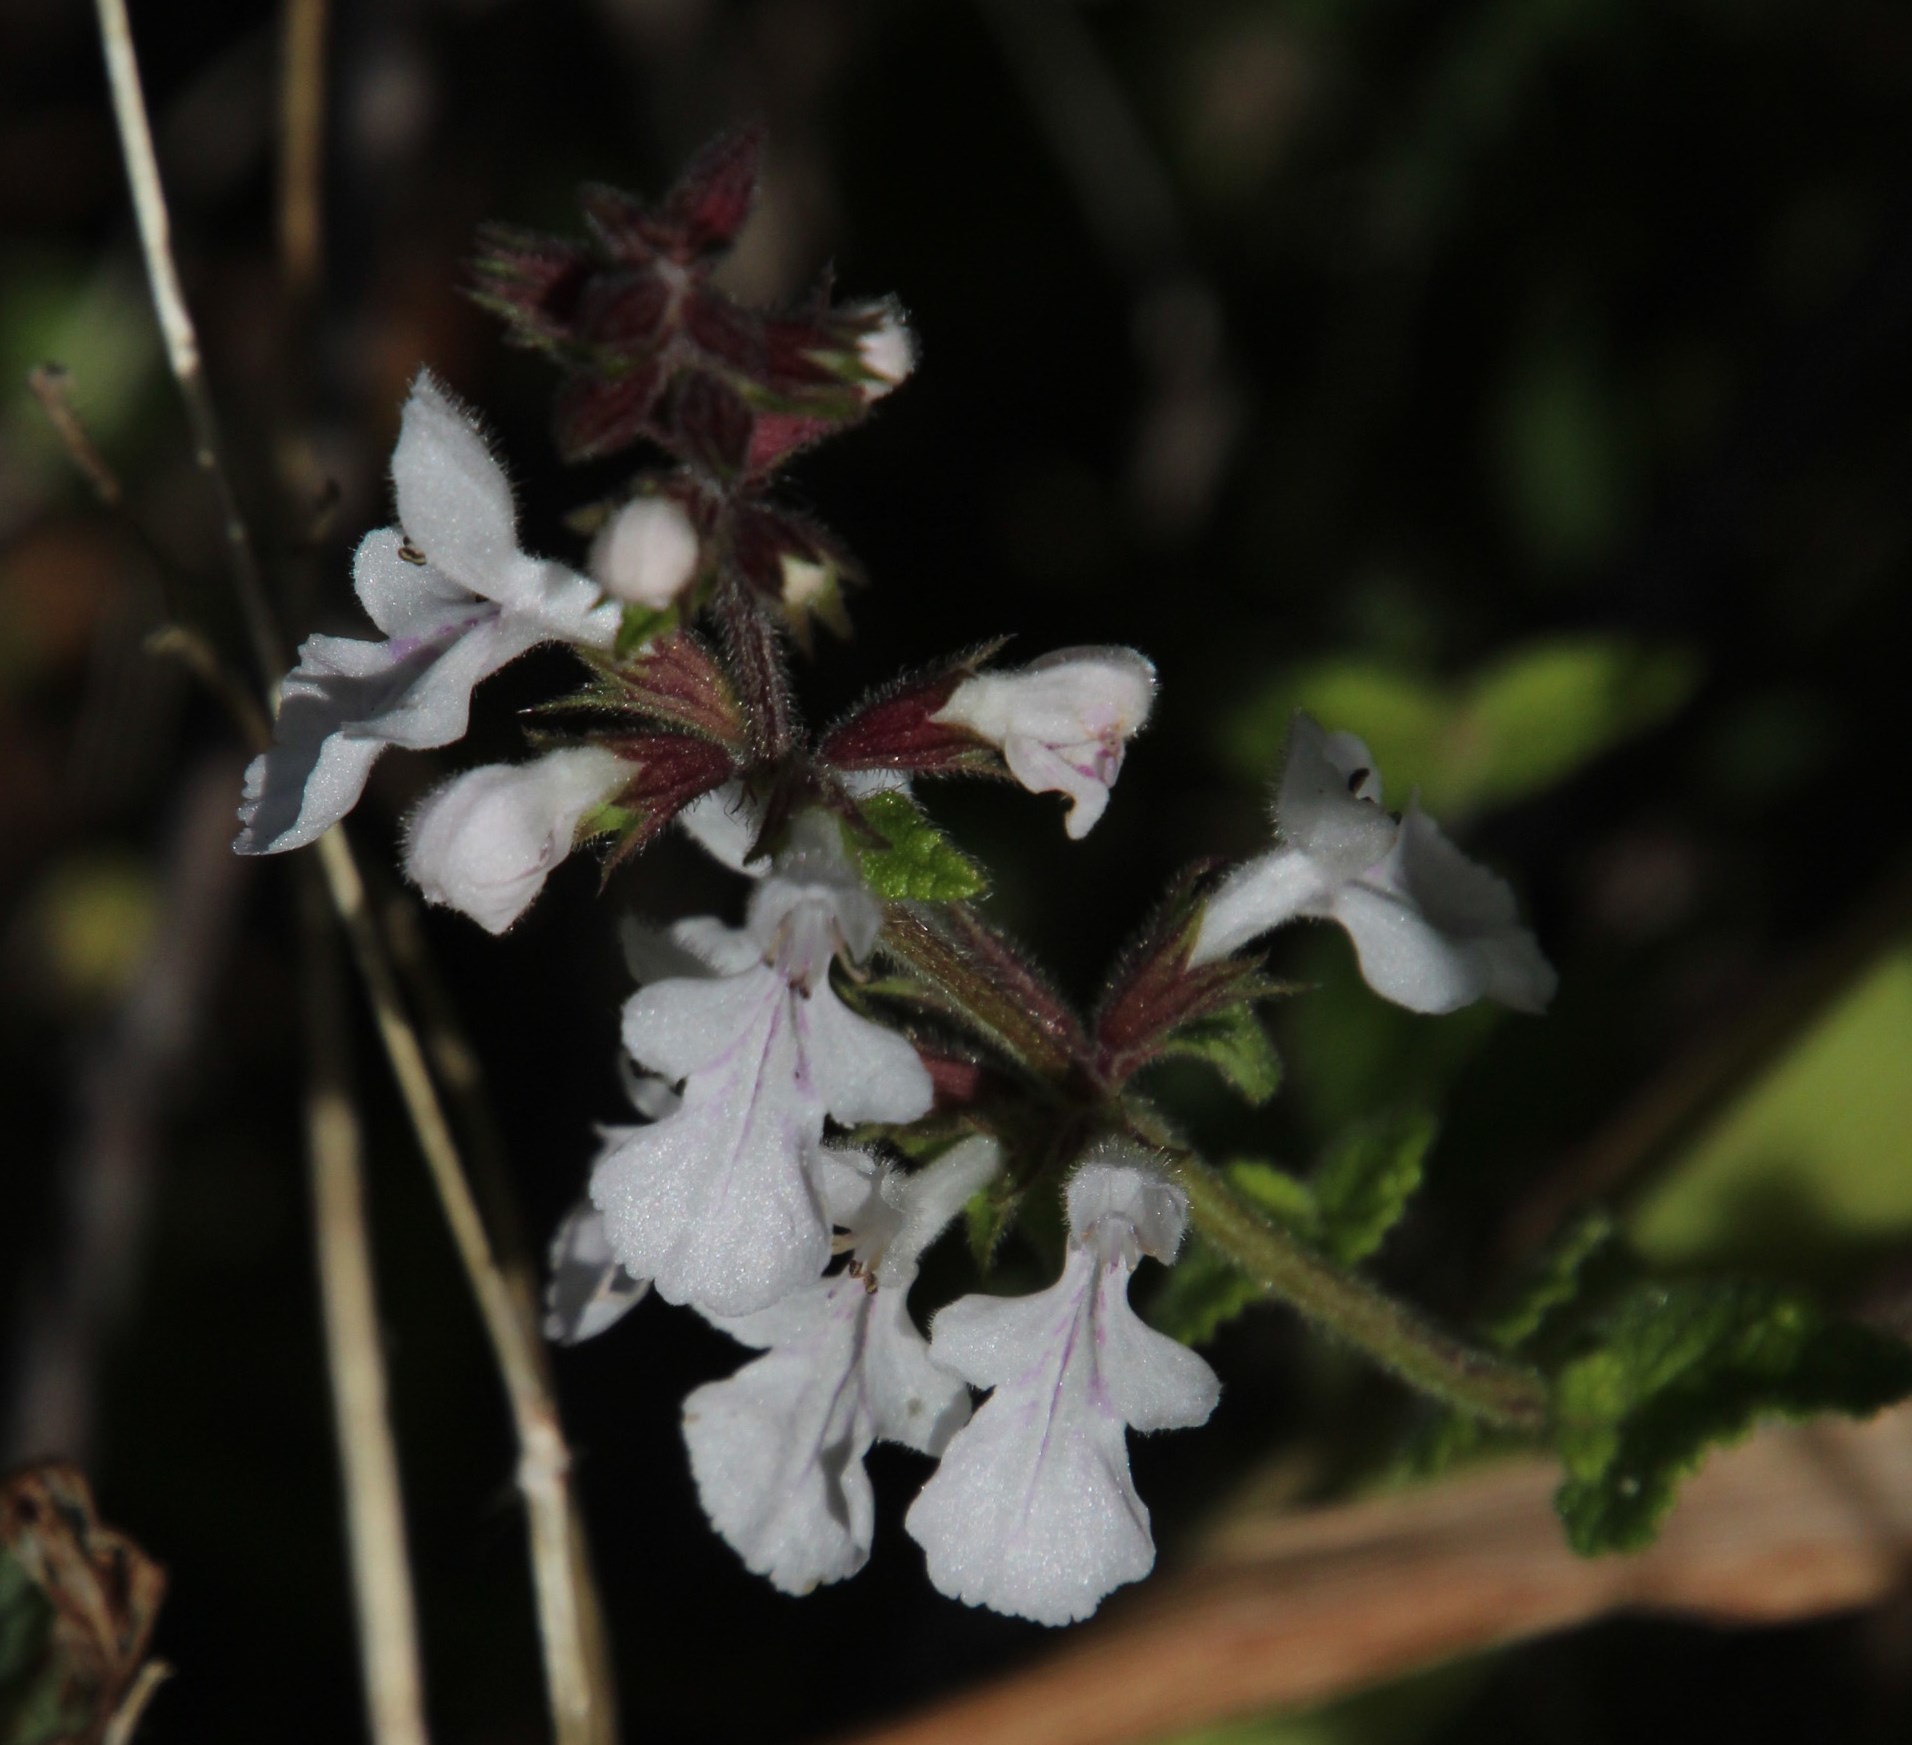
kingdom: Plantae
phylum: Tracheophyta
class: Magnoliopsida
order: Lamiales
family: Lamiaceae
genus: Stachys
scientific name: Stachys aethiopica
